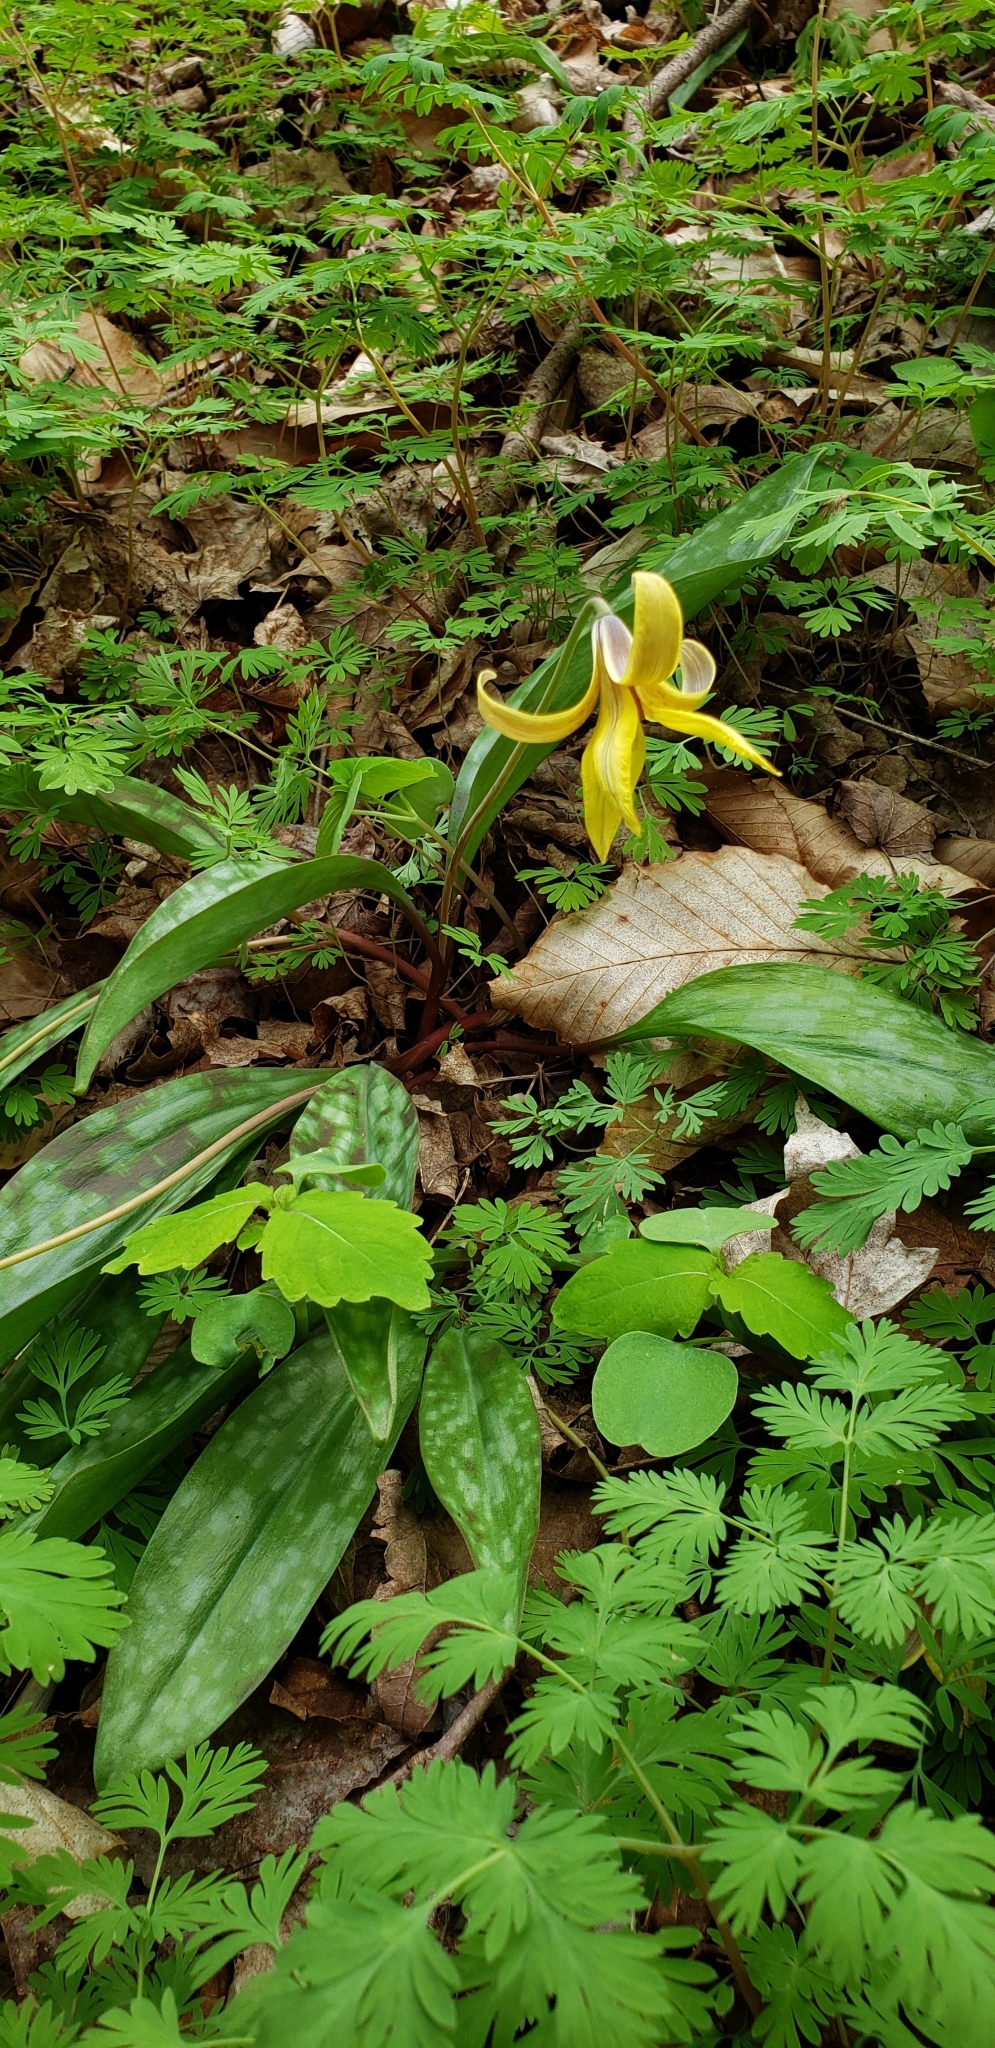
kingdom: Plantae
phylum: Tracheophyta
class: Liliopsida
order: Liliales
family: Liliaceae
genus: Erythronium
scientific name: Erythronium americanum
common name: Yellow adder's-tongue
